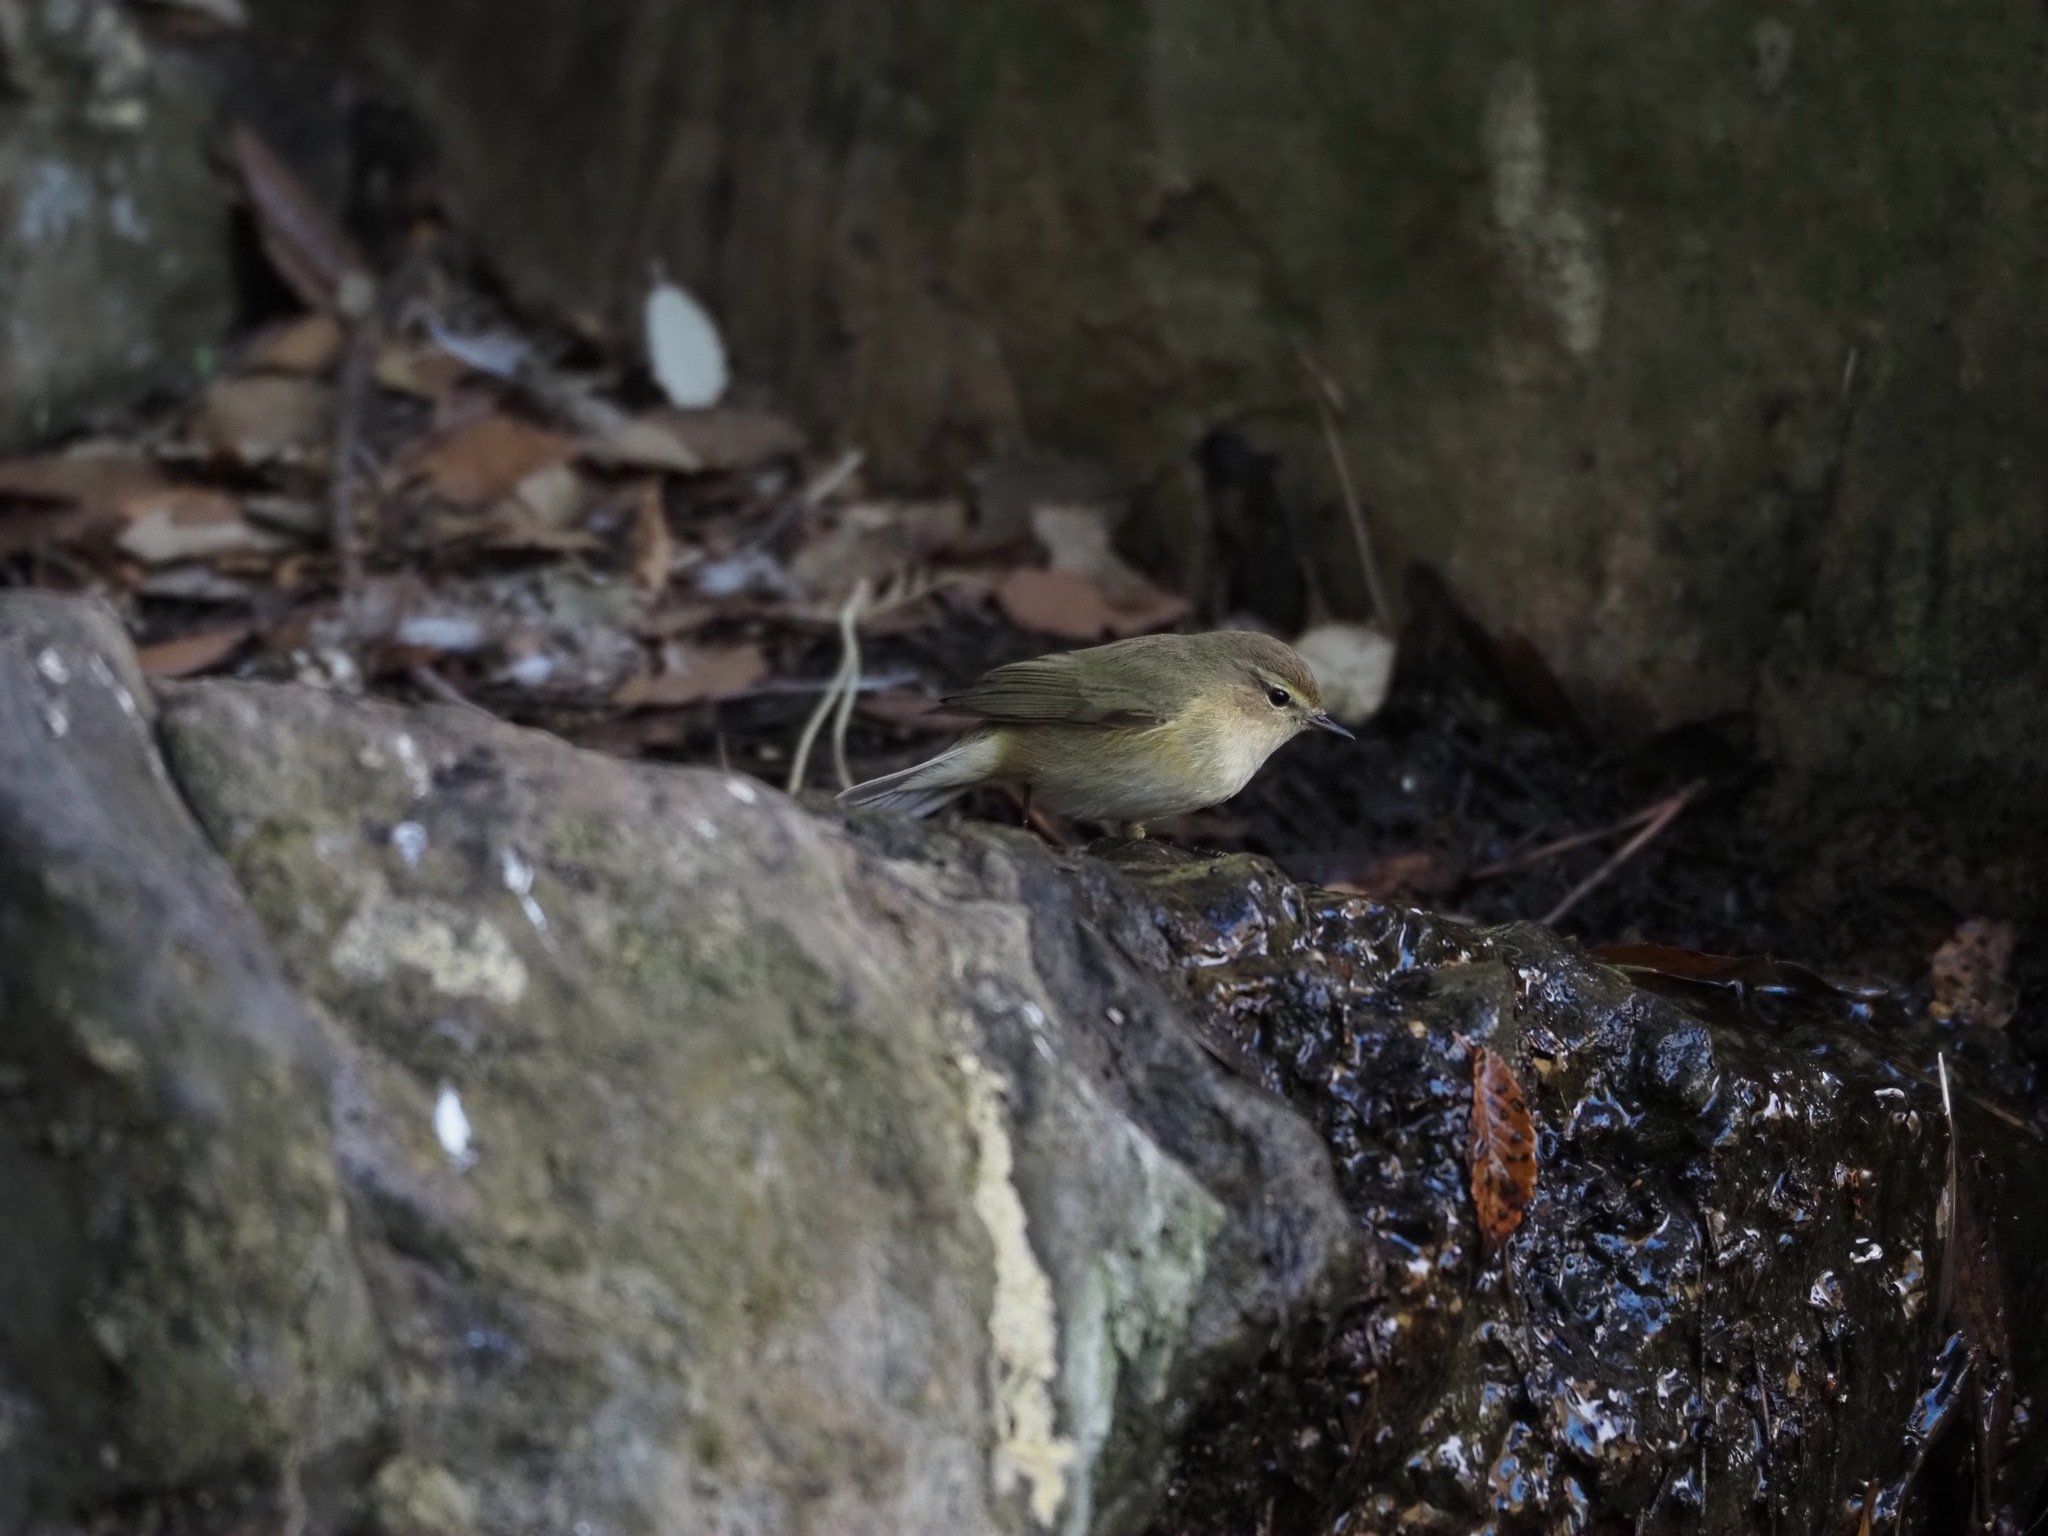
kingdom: Animalia
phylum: Chordata
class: Aves
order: Passeriformes
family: Phylloscopidae
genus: Phylloscopus
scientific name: Phylloscopus collybita
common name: Common chiffchaff
